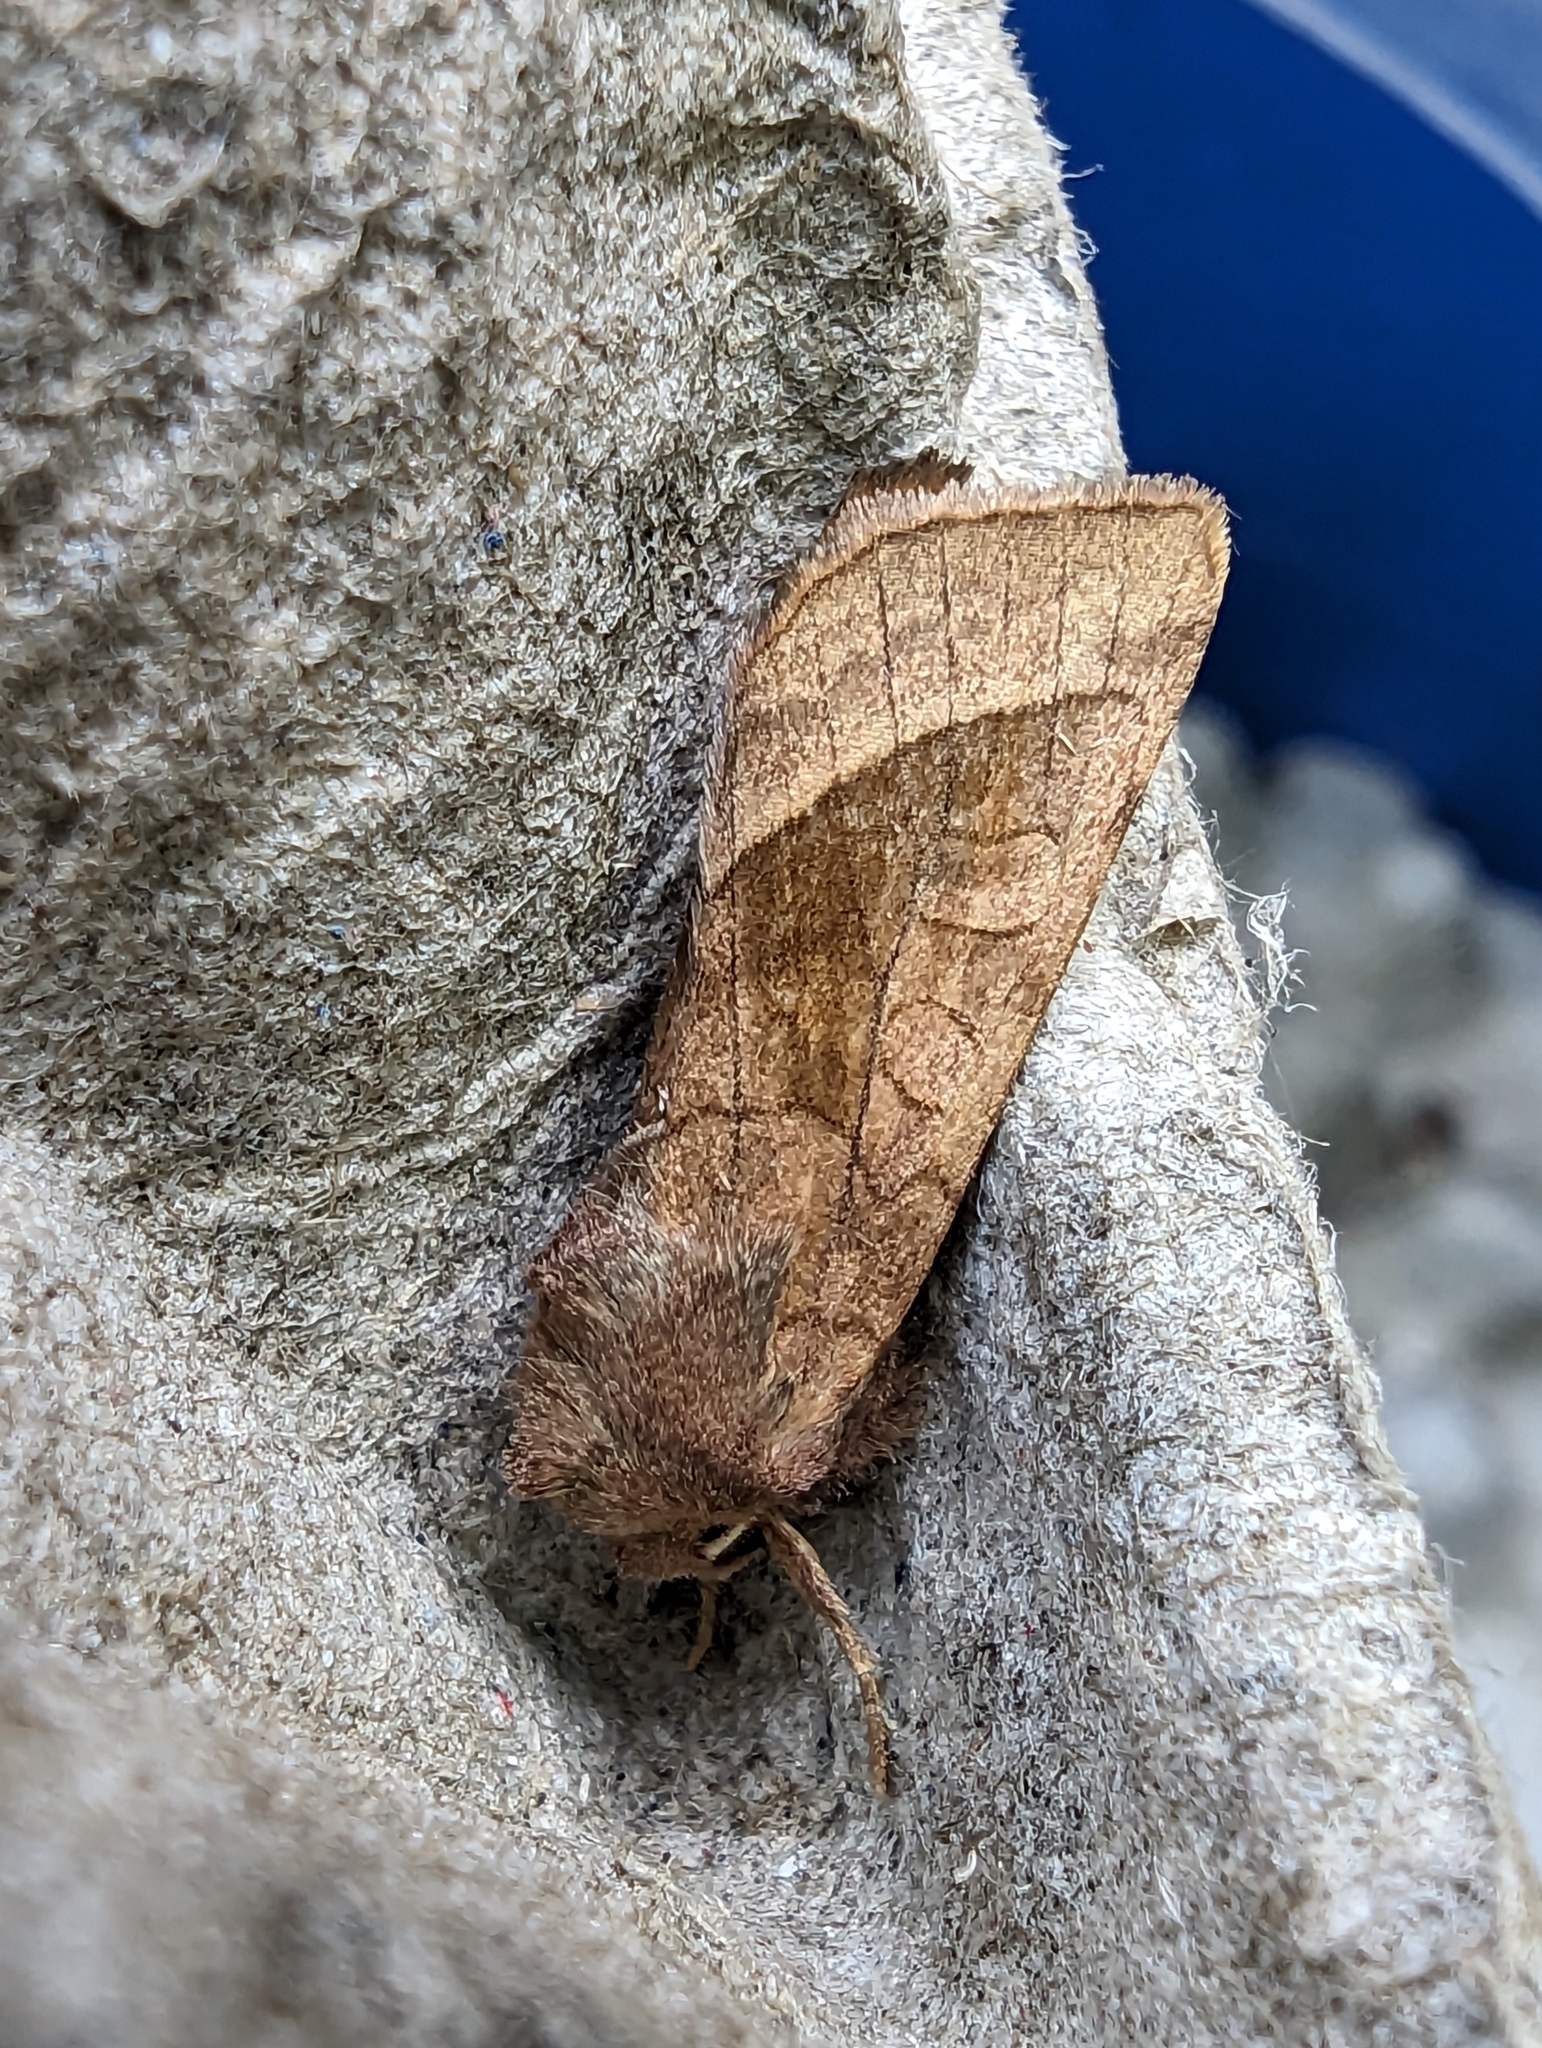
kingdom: Animalia
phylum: Arthropoda
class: Insecta
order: Lepidoptera
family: Noctuidae
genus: Hydraecia
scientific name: Hydraecia micacea
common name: Rosy rustic
